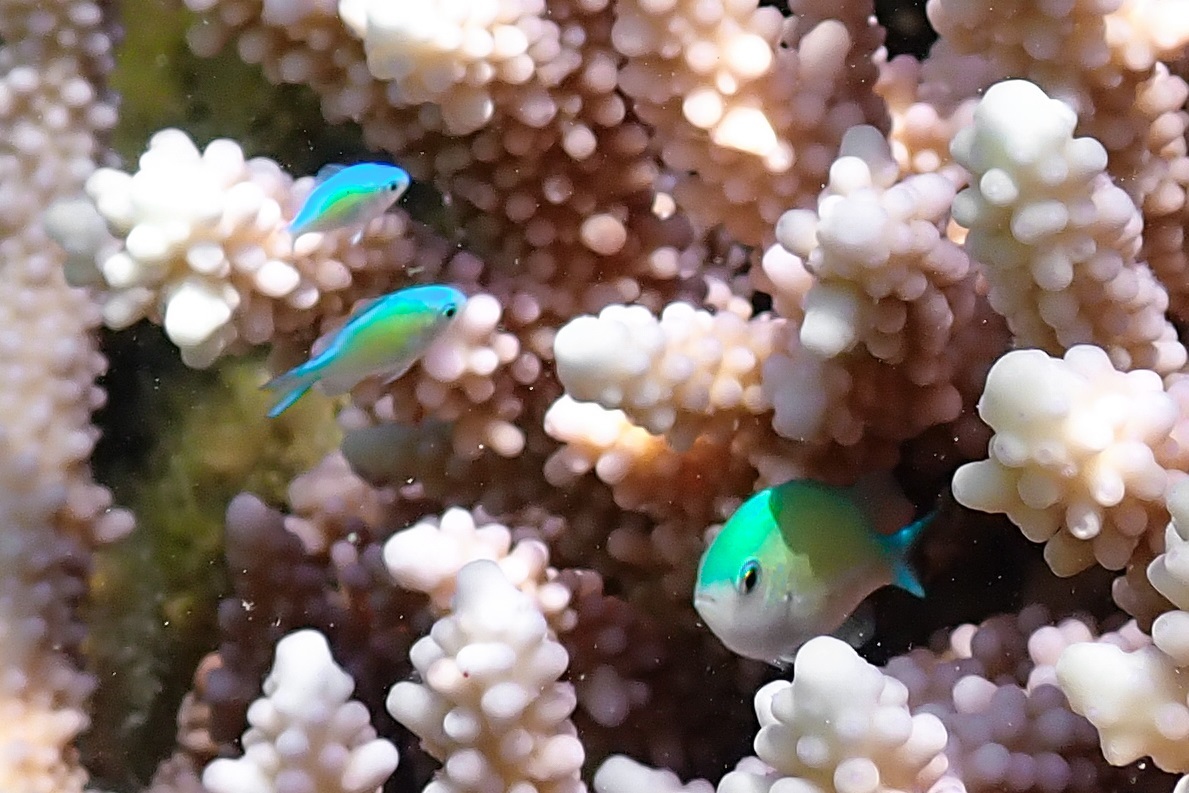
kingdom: Animalia
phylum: Chordata
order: Perciformes
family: Pomacentridae
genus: Chromis
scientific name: Chromis viridis
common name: Blue-green chromis
